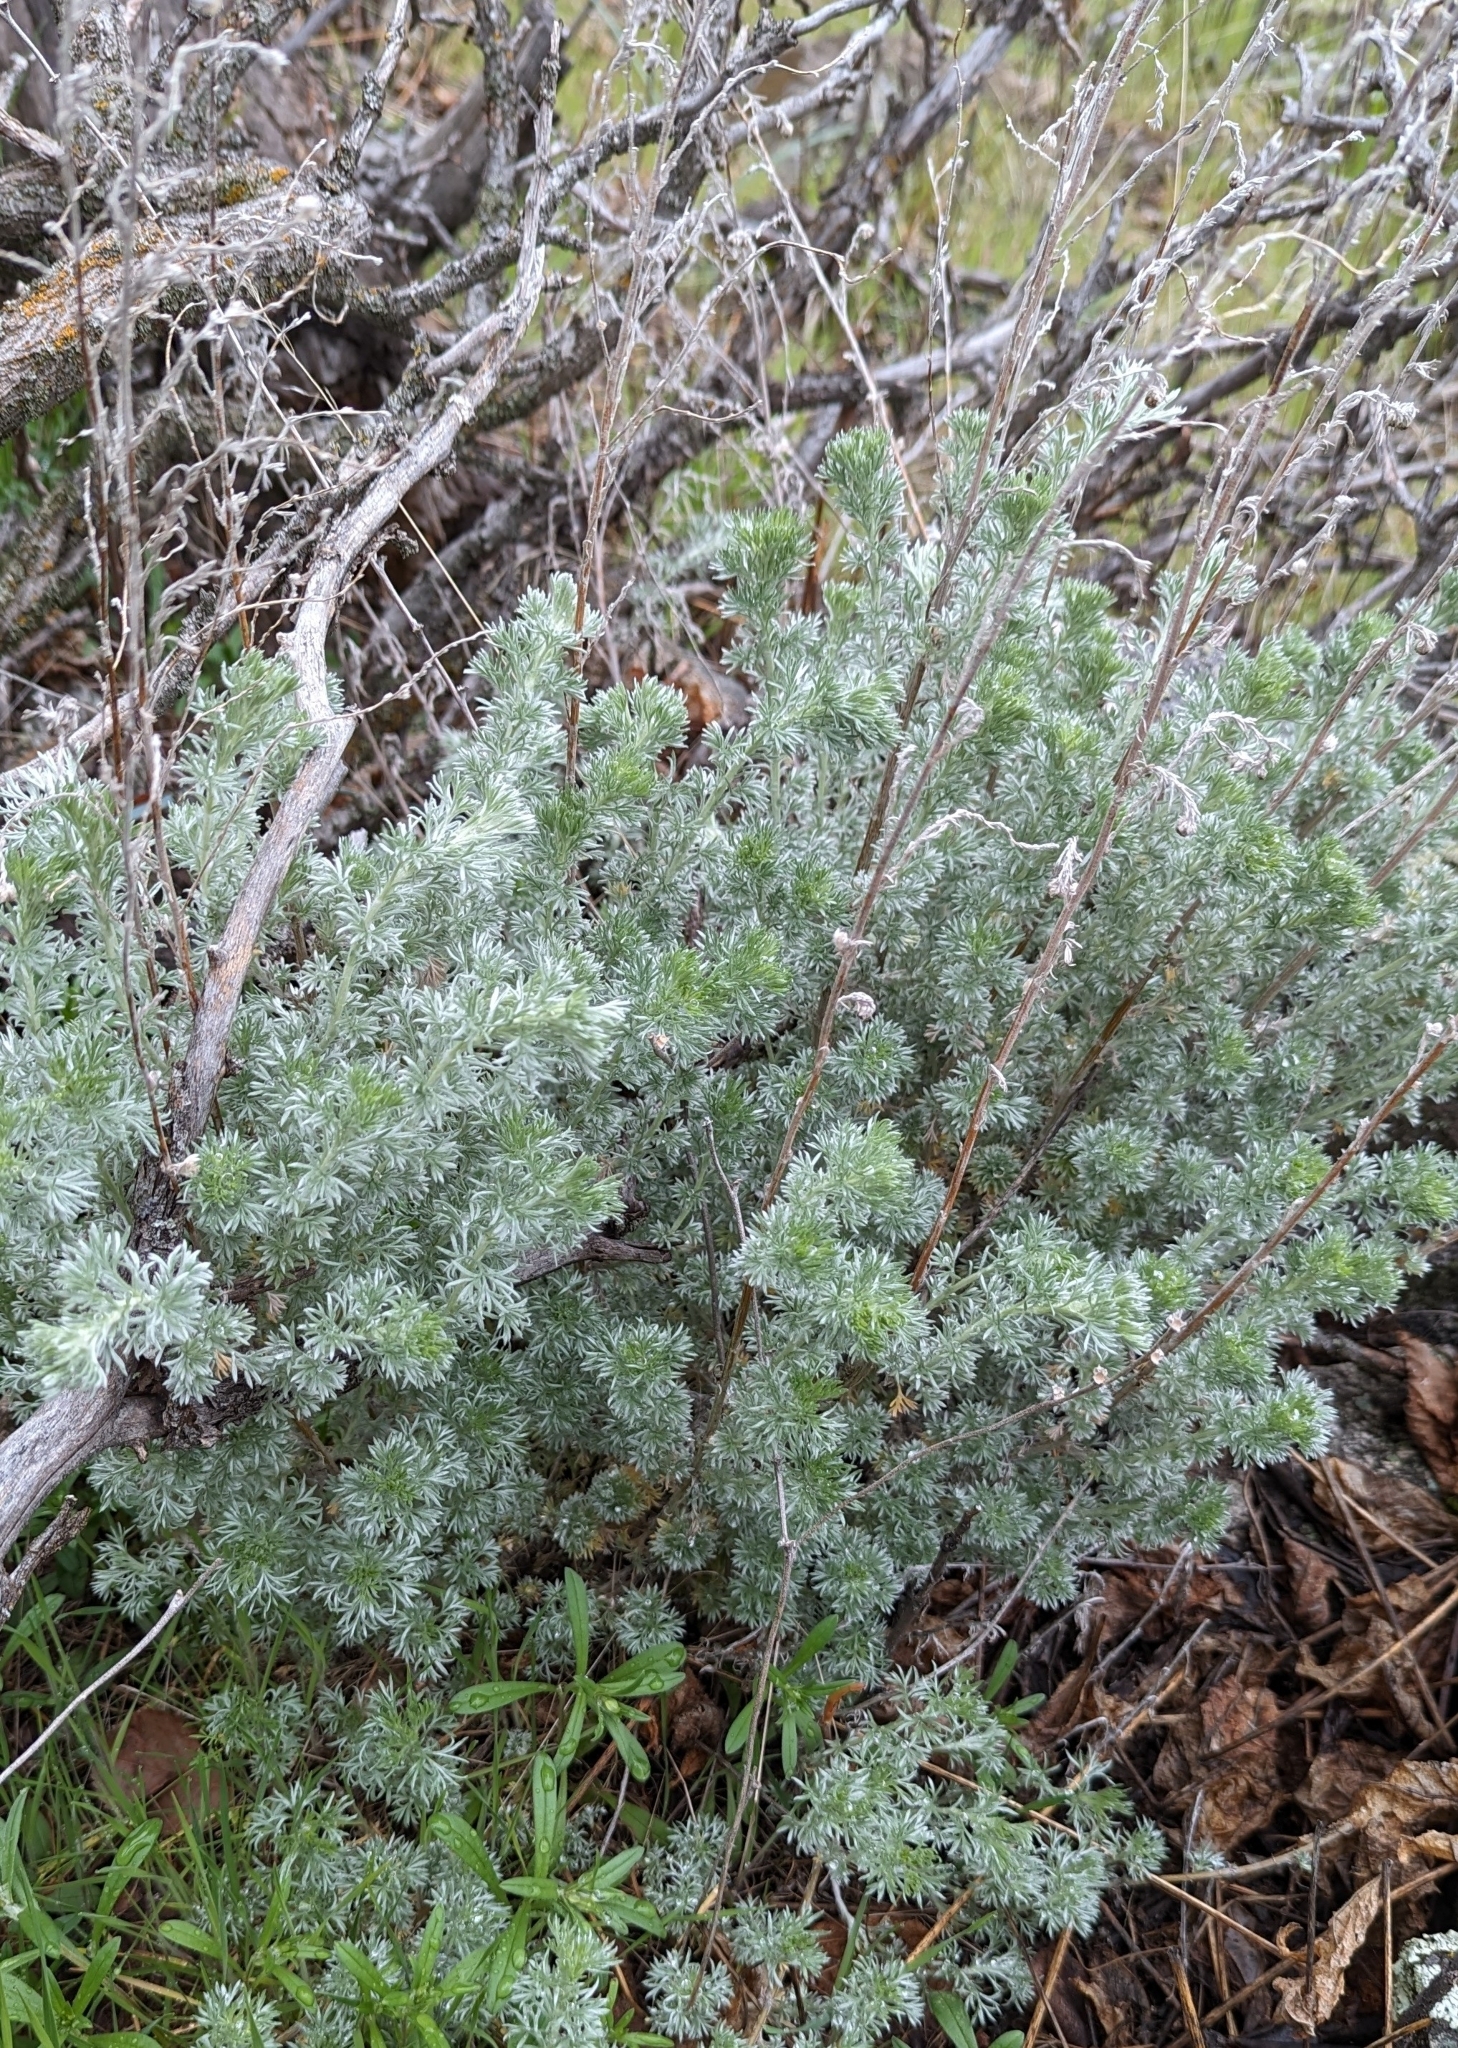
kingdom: Plantae
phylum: Tracheophyta
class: Magnoliopsida
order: Asterales
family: Asteraceae
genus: Artemisia
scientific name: Artemisia frigida
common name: Prairie sagewort
